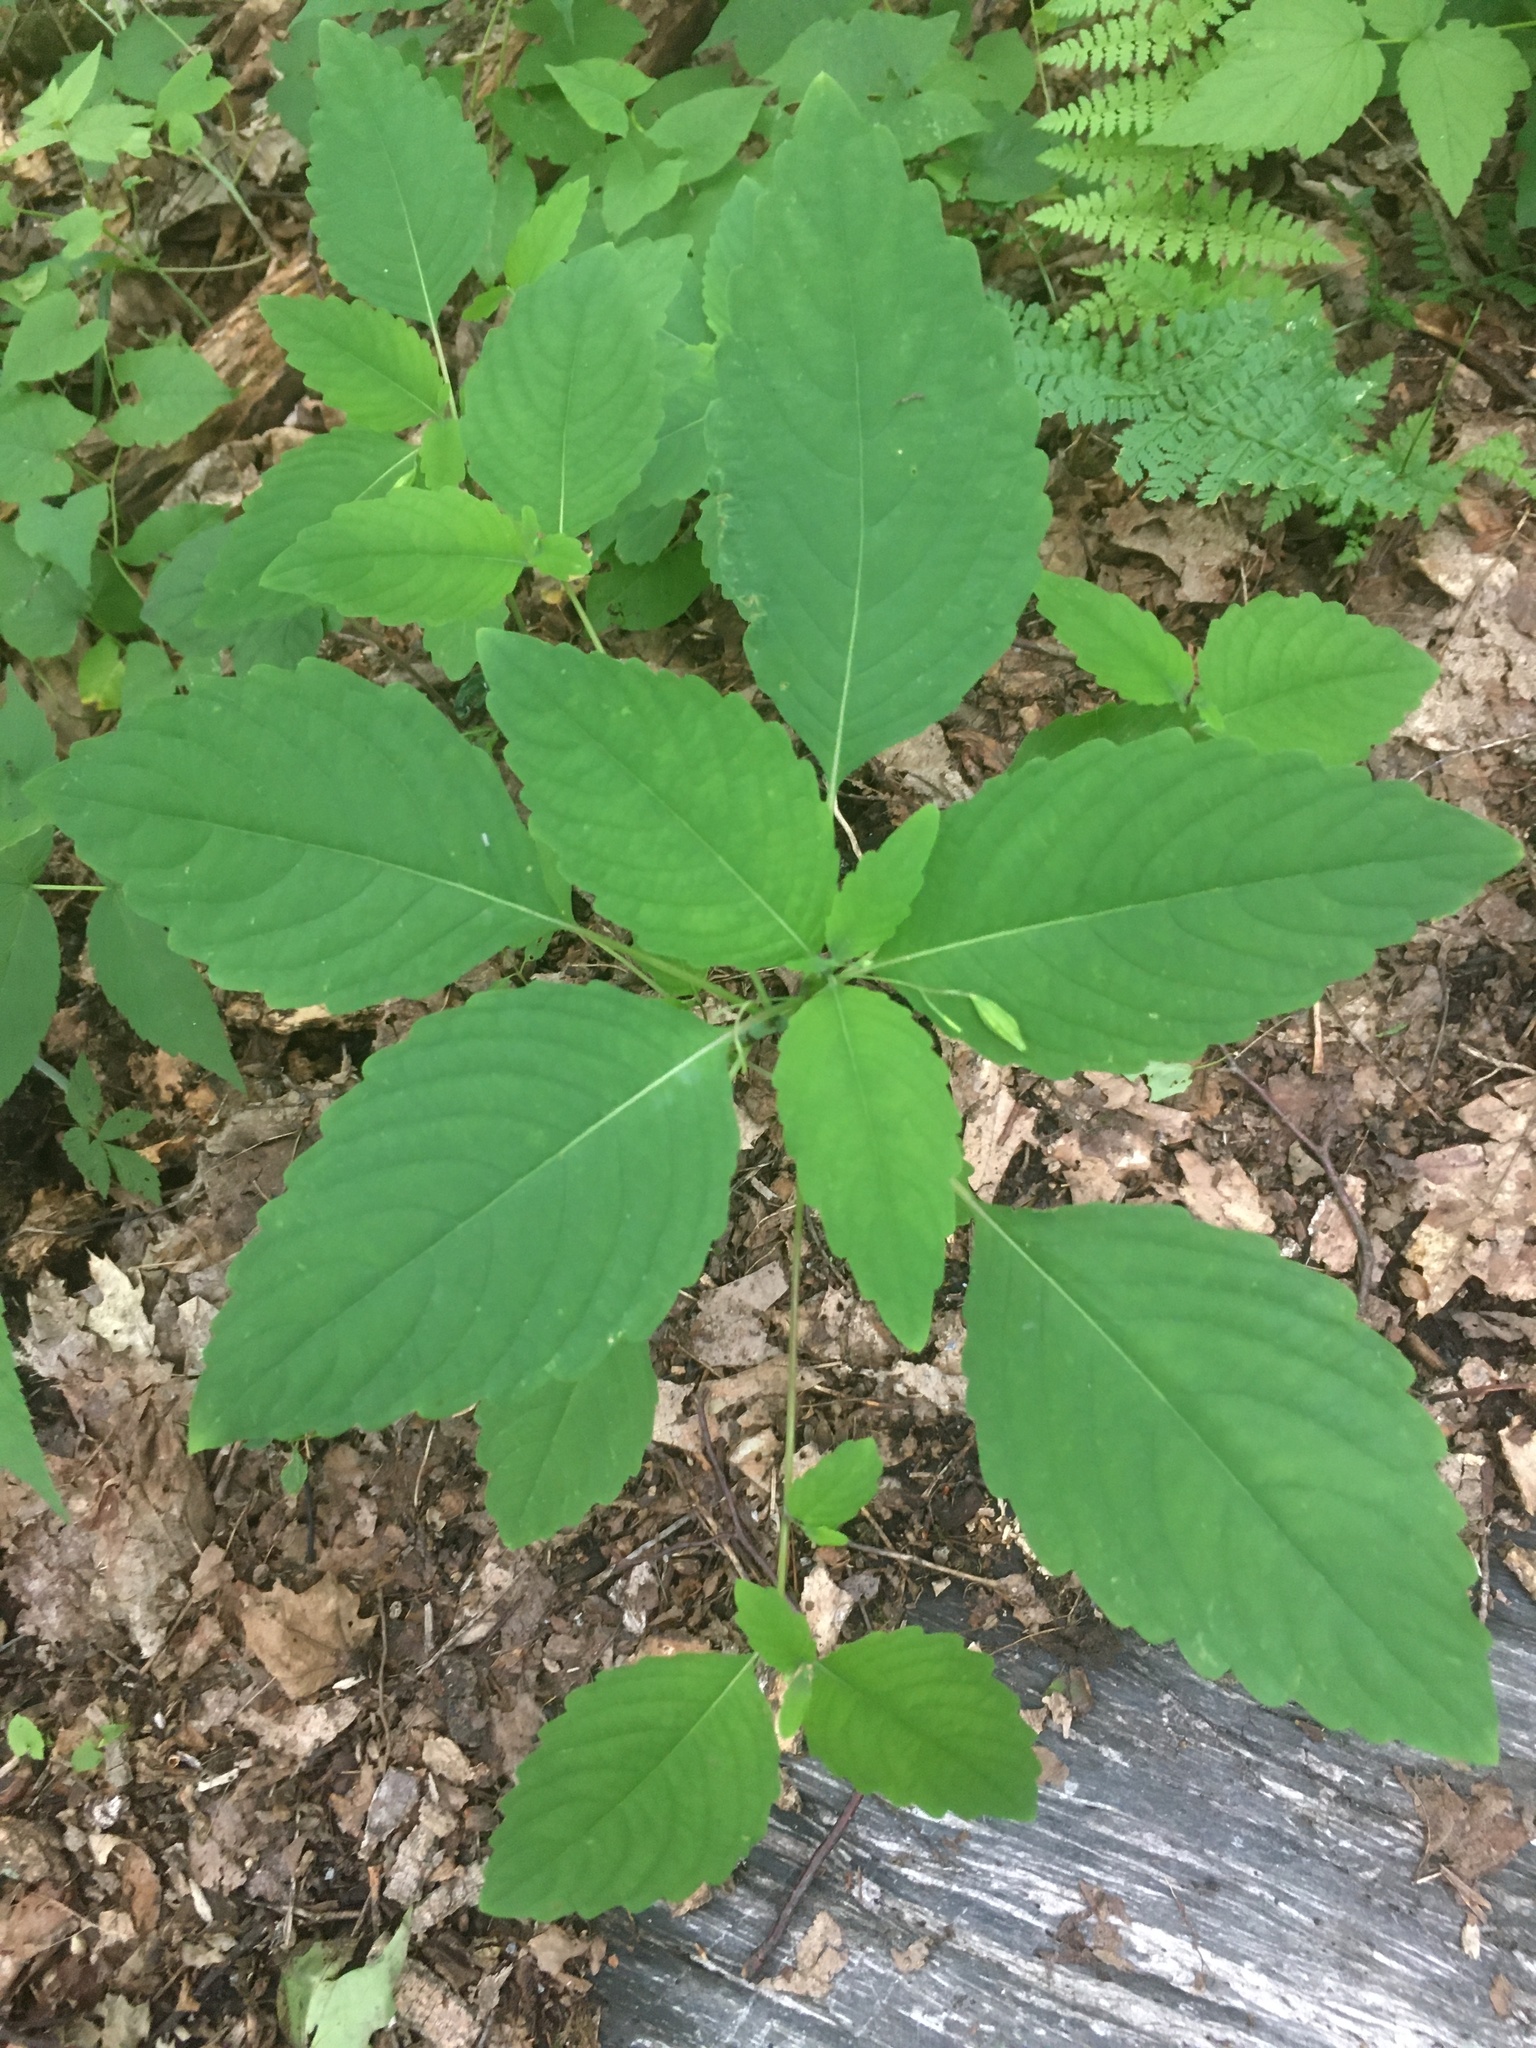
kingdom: Plantae
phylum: Tracheophyta
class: Magnoliopsida
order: Ericales
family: Balsaminaceae
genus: Impatiens
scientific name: Impatiens pallida
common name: Pale snapweed
